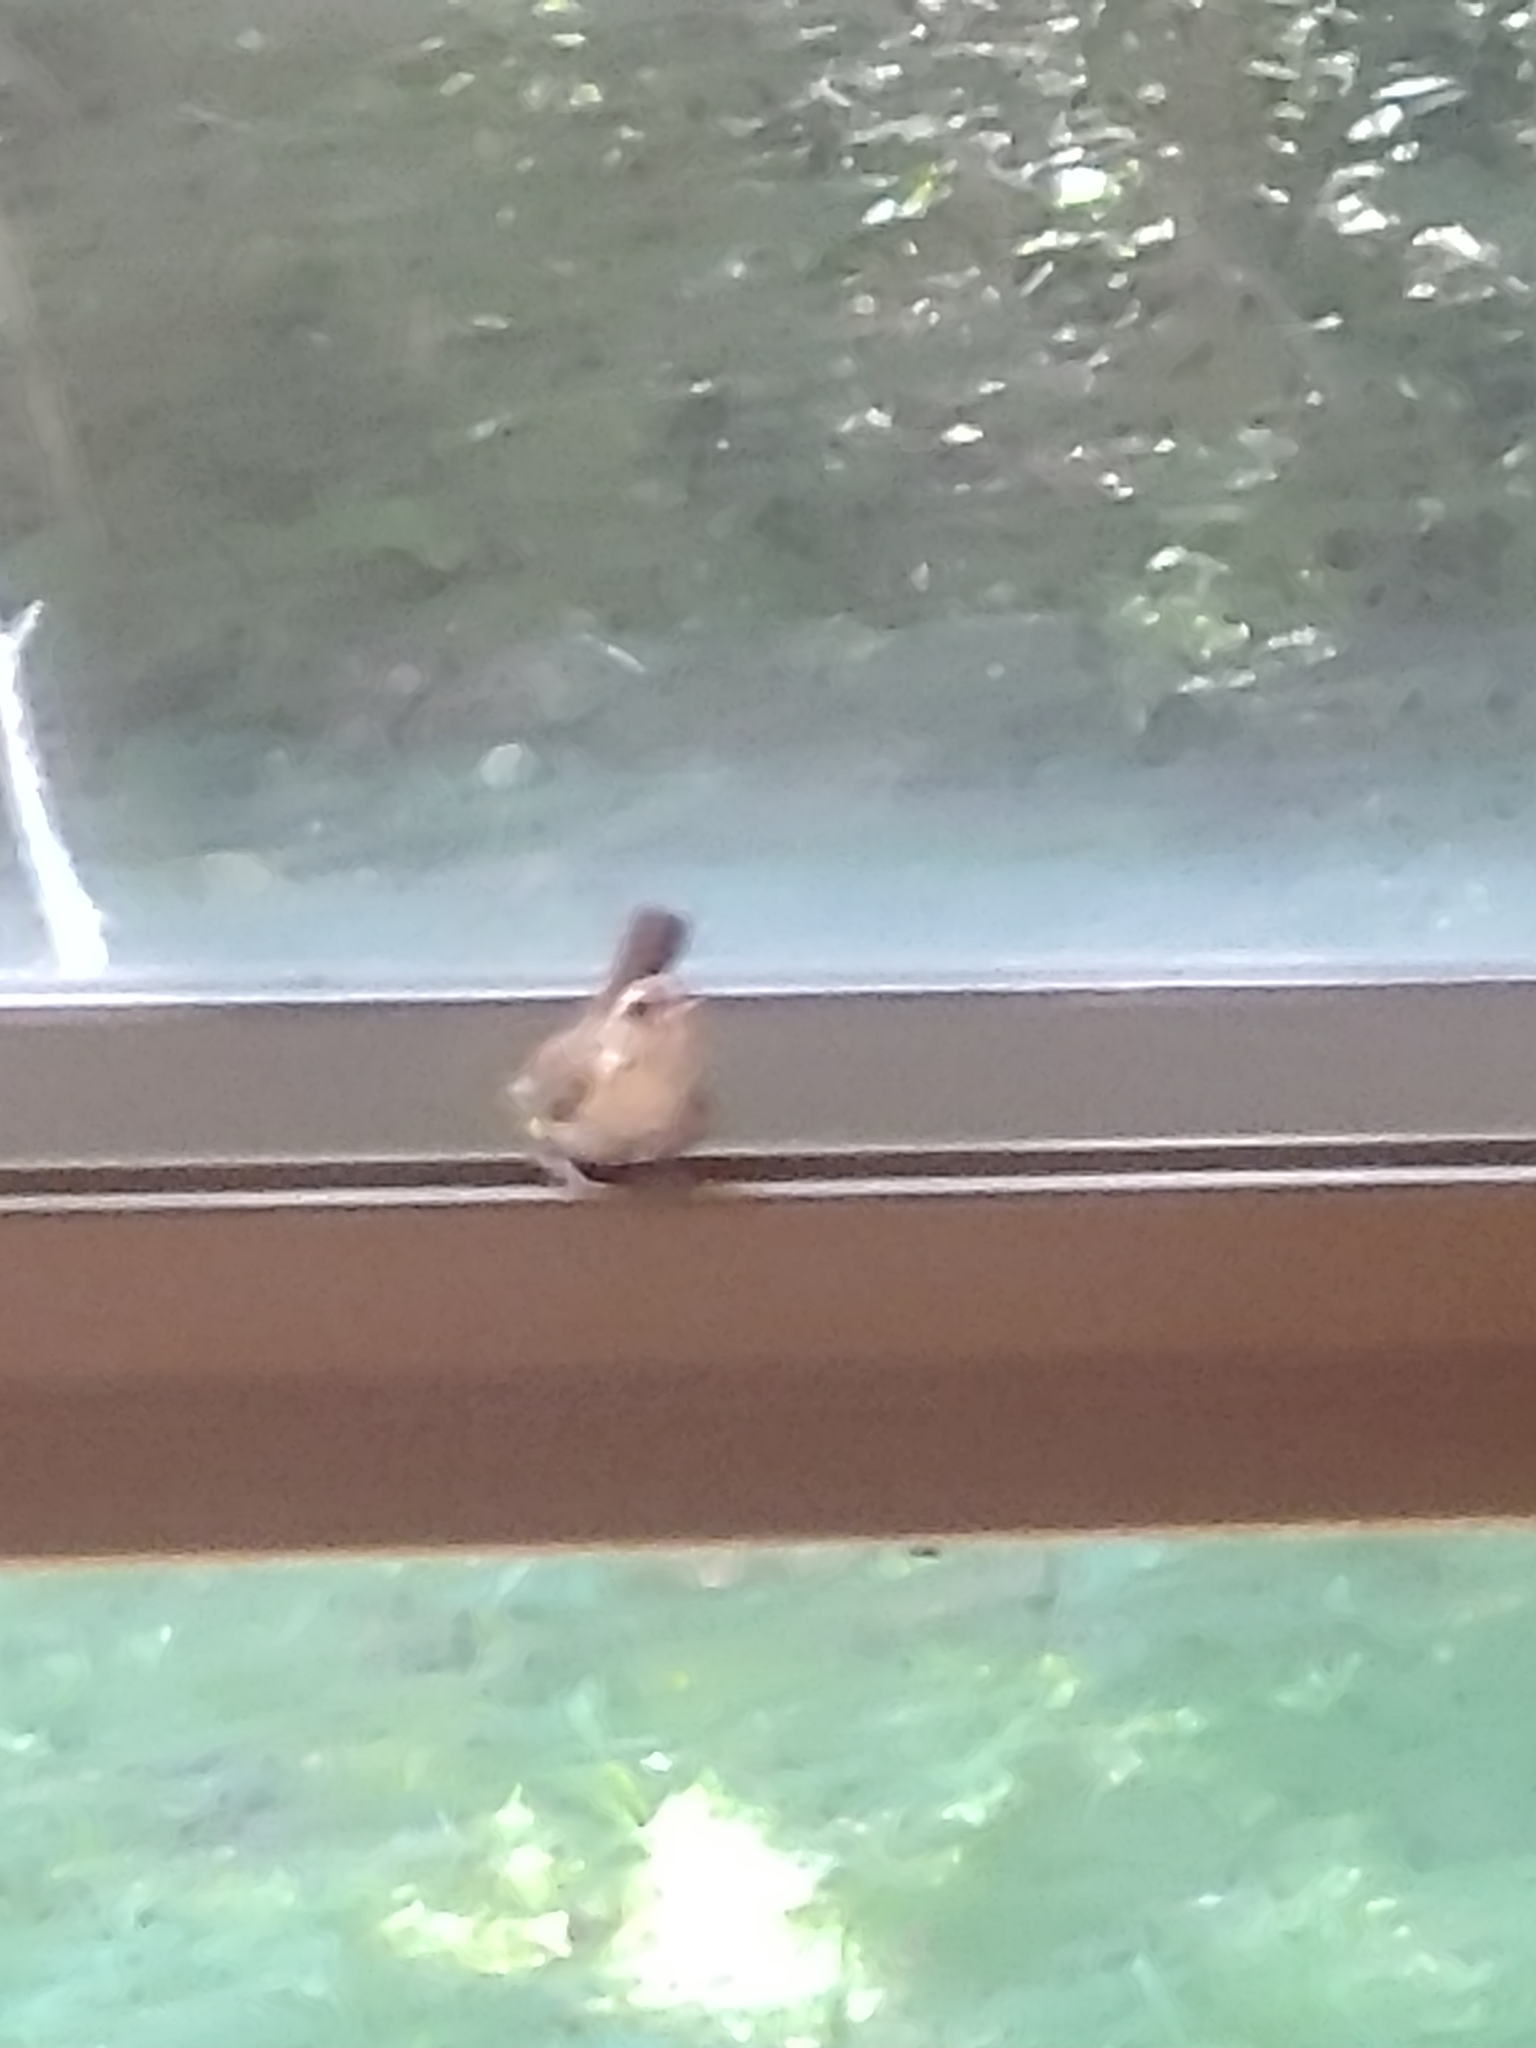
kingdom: Animalia
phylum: Chordata
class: Aves
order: Passeriformes
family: Troglodytidae
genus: Thryothorus
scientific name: Thryothorus ludovicianus
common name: Carolina wren
